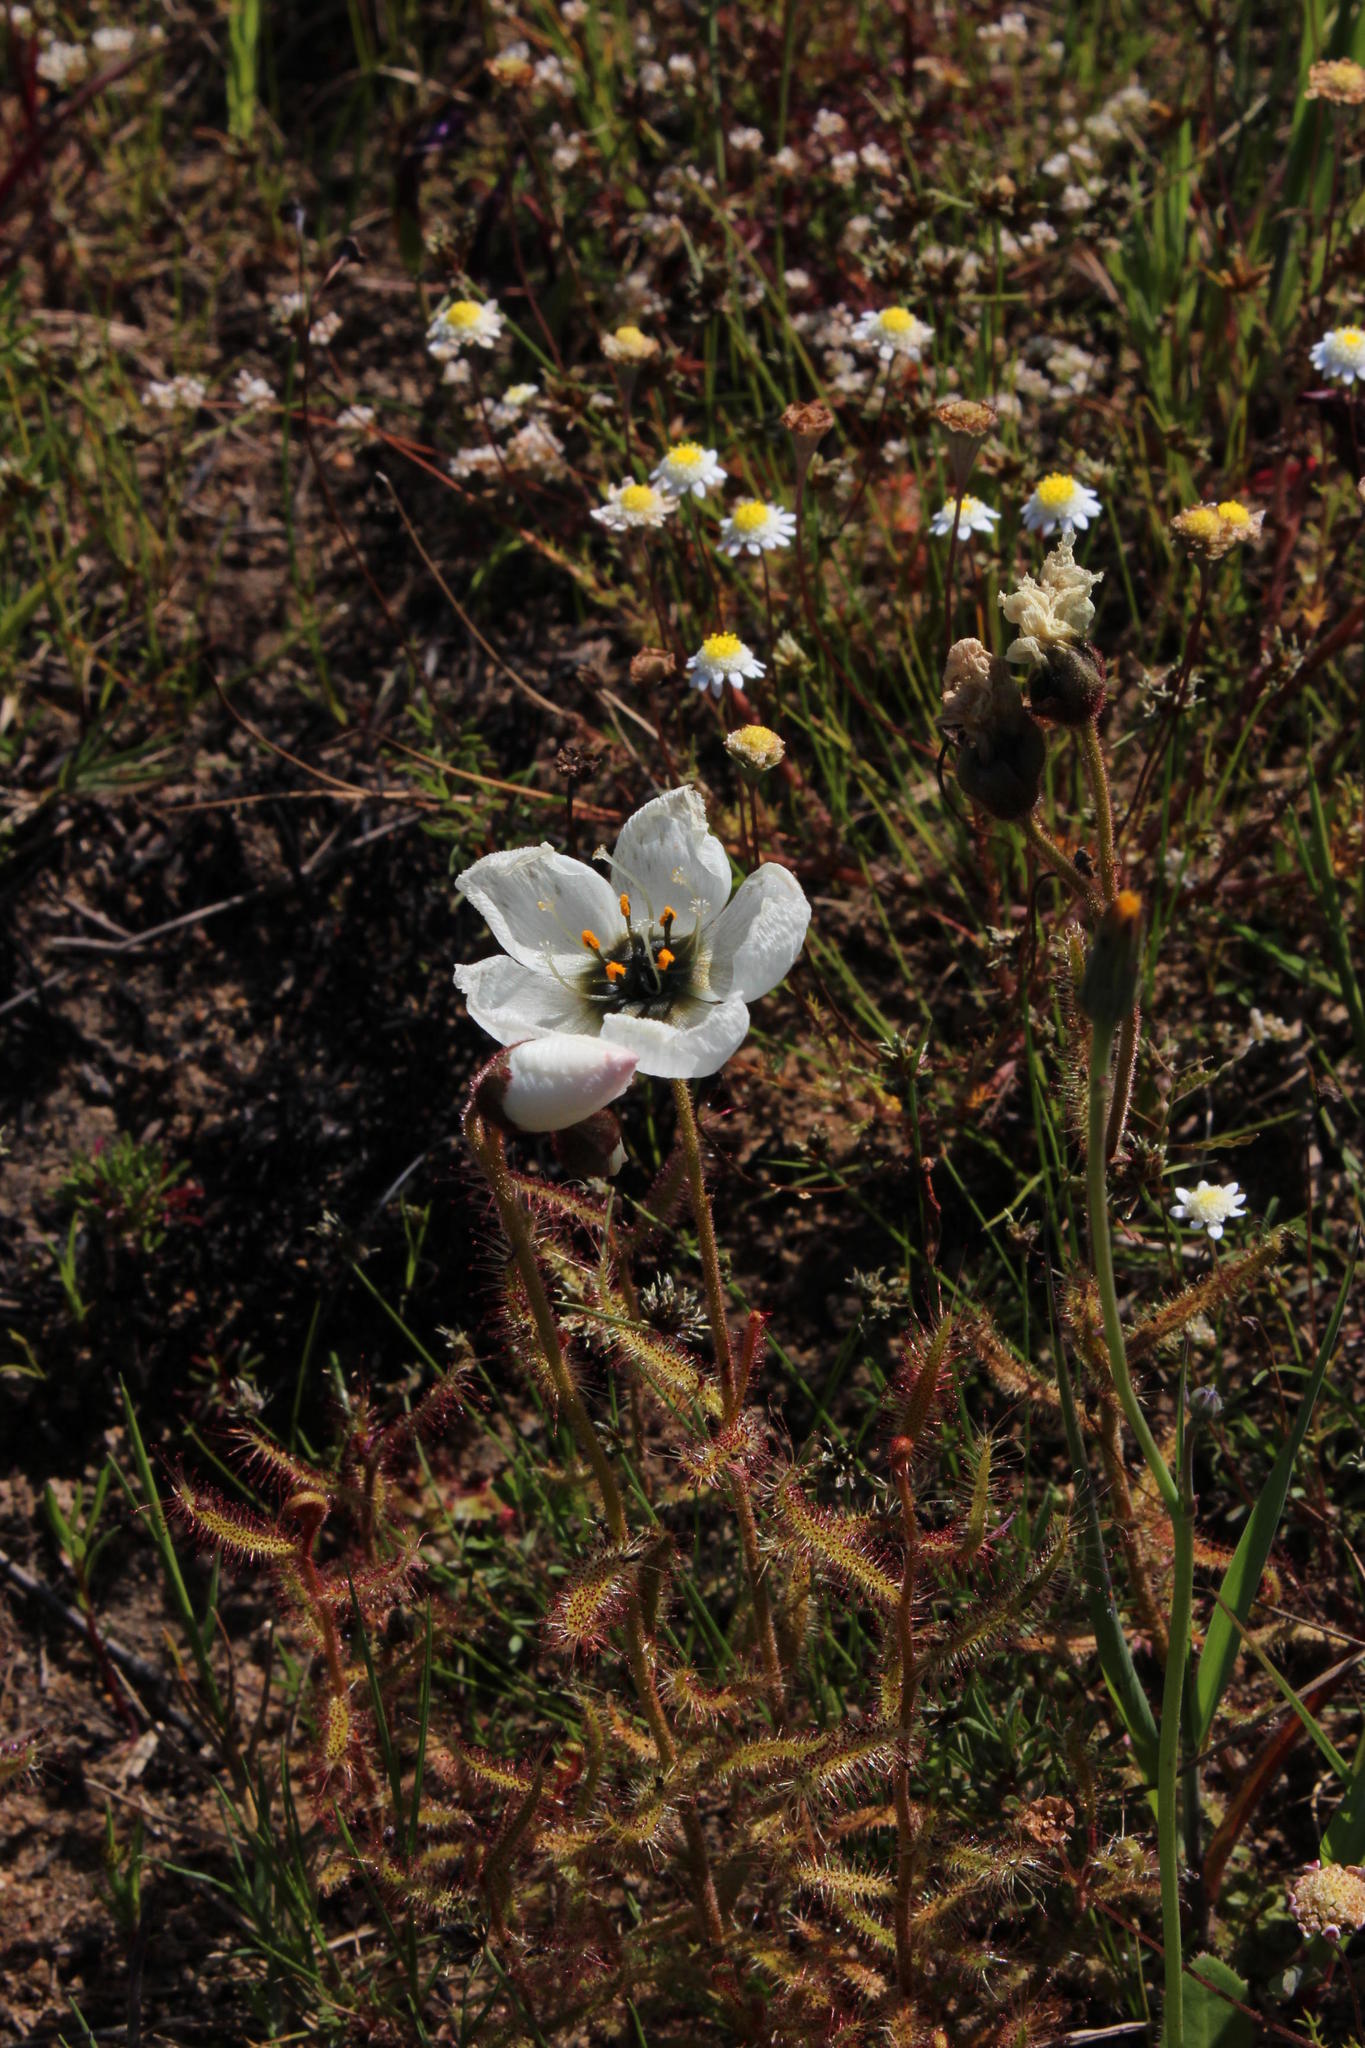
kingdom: Plantae
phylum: Tracheophyta
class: Magnoliopsida
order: Caryophyllales
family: Droseraceae
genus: Drosera
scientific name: Drosera cistiflora
